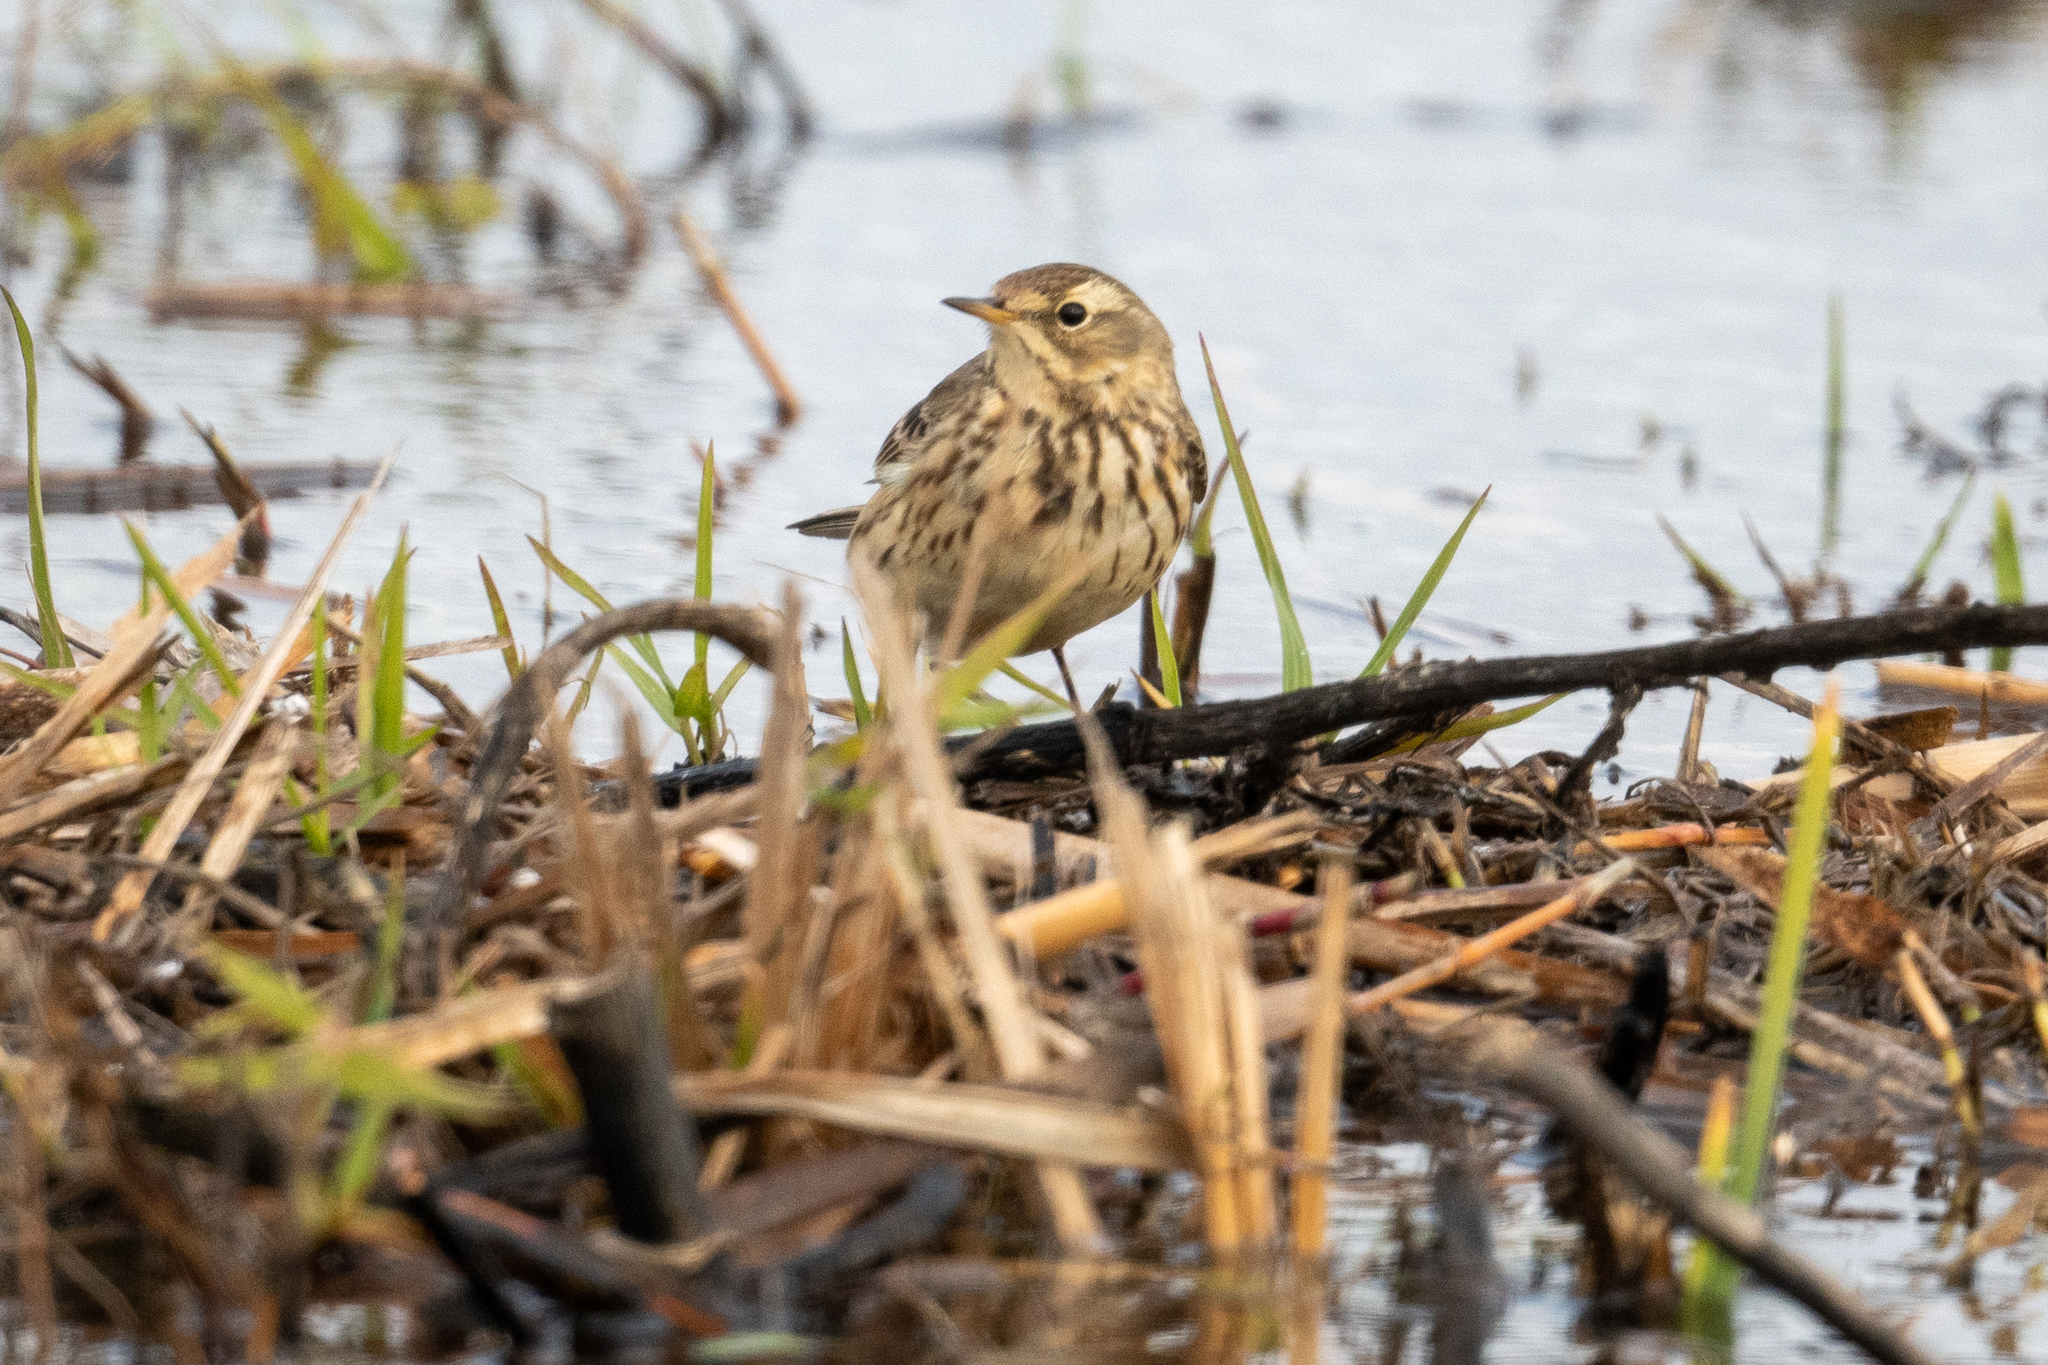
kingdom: Animalia
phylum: Chordata
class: Aves
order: Passeriformes
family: Motacillidae
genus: Anthus
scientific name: Anthus rubescens
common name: Buff-bellied pipit
